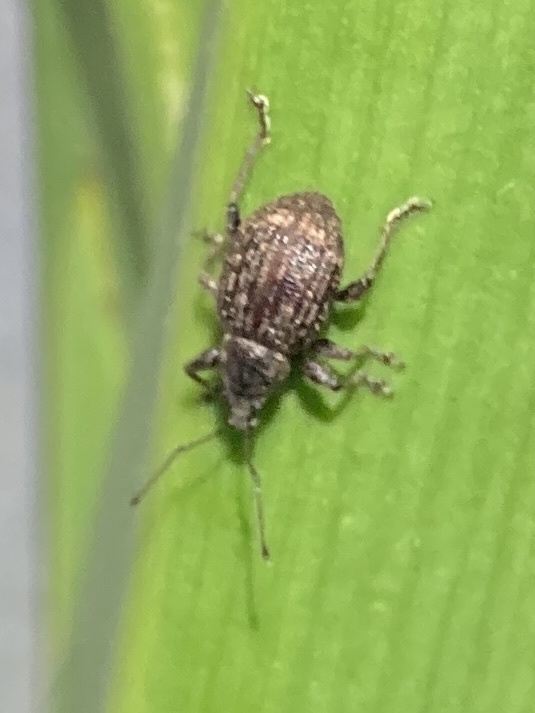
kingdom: Animalia
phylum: Arthropoda
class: Insecta
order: Coleoptera
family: Curculionidae
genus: Phlyctinus
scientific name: Phlyctinus callosus
